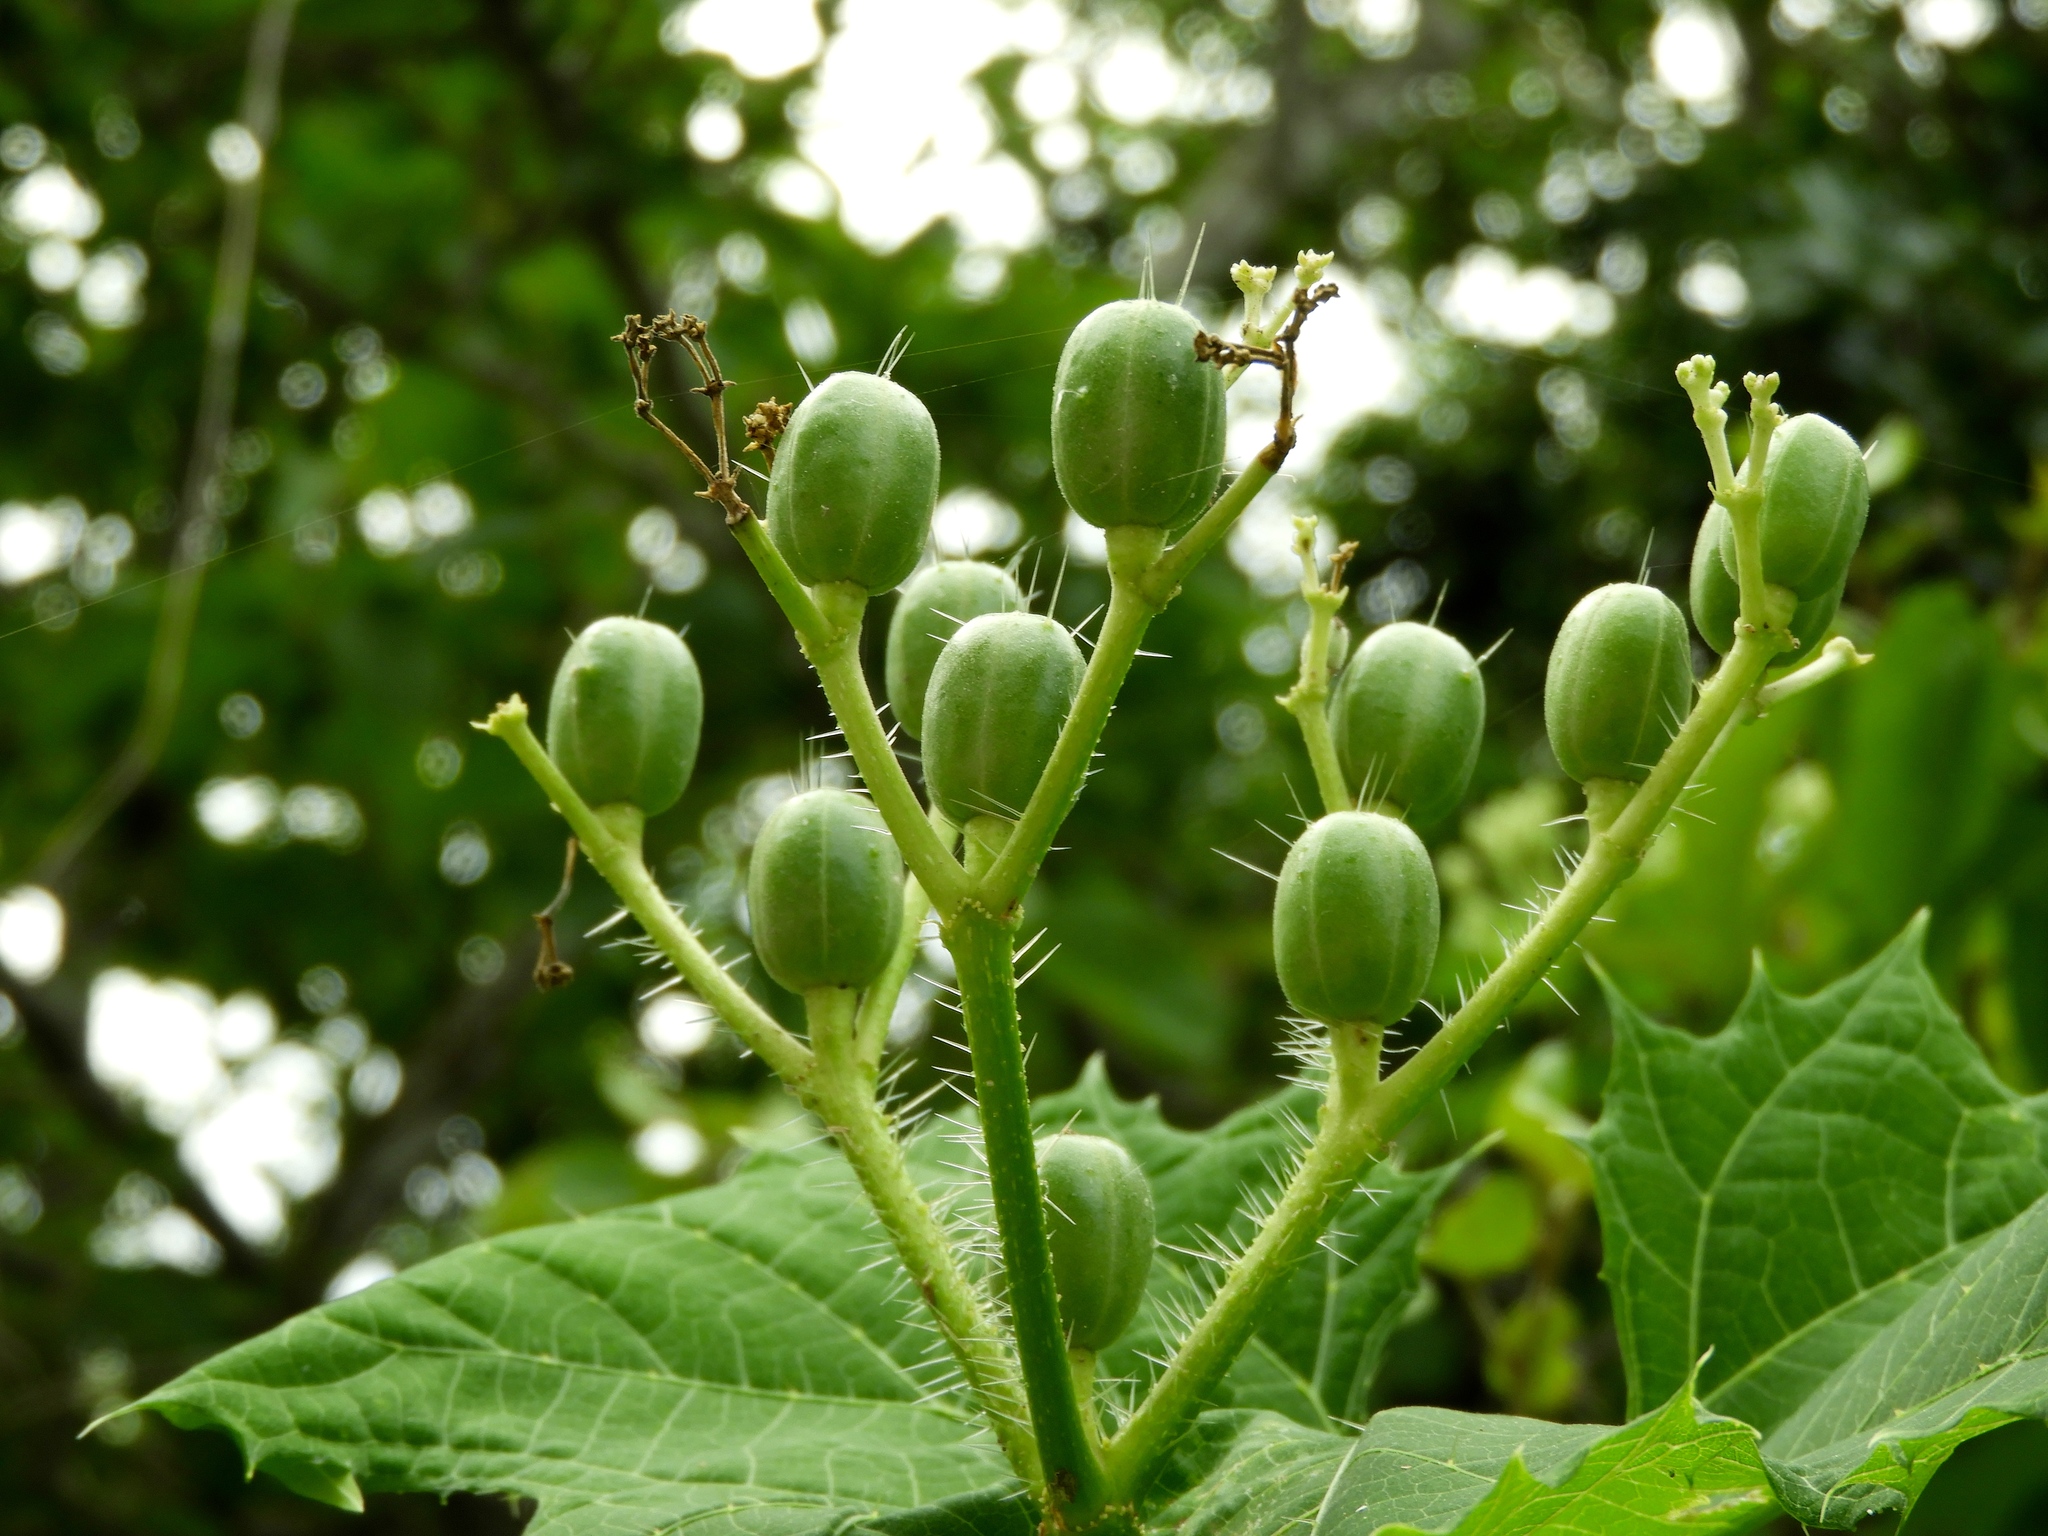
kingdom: Plantae
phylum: Tracheophyta
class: Magnoliopsida
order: Malpighiales
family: Euphorbiaceae
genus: Cnidoscolus
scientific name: Cnidoscolus sinaloensis
